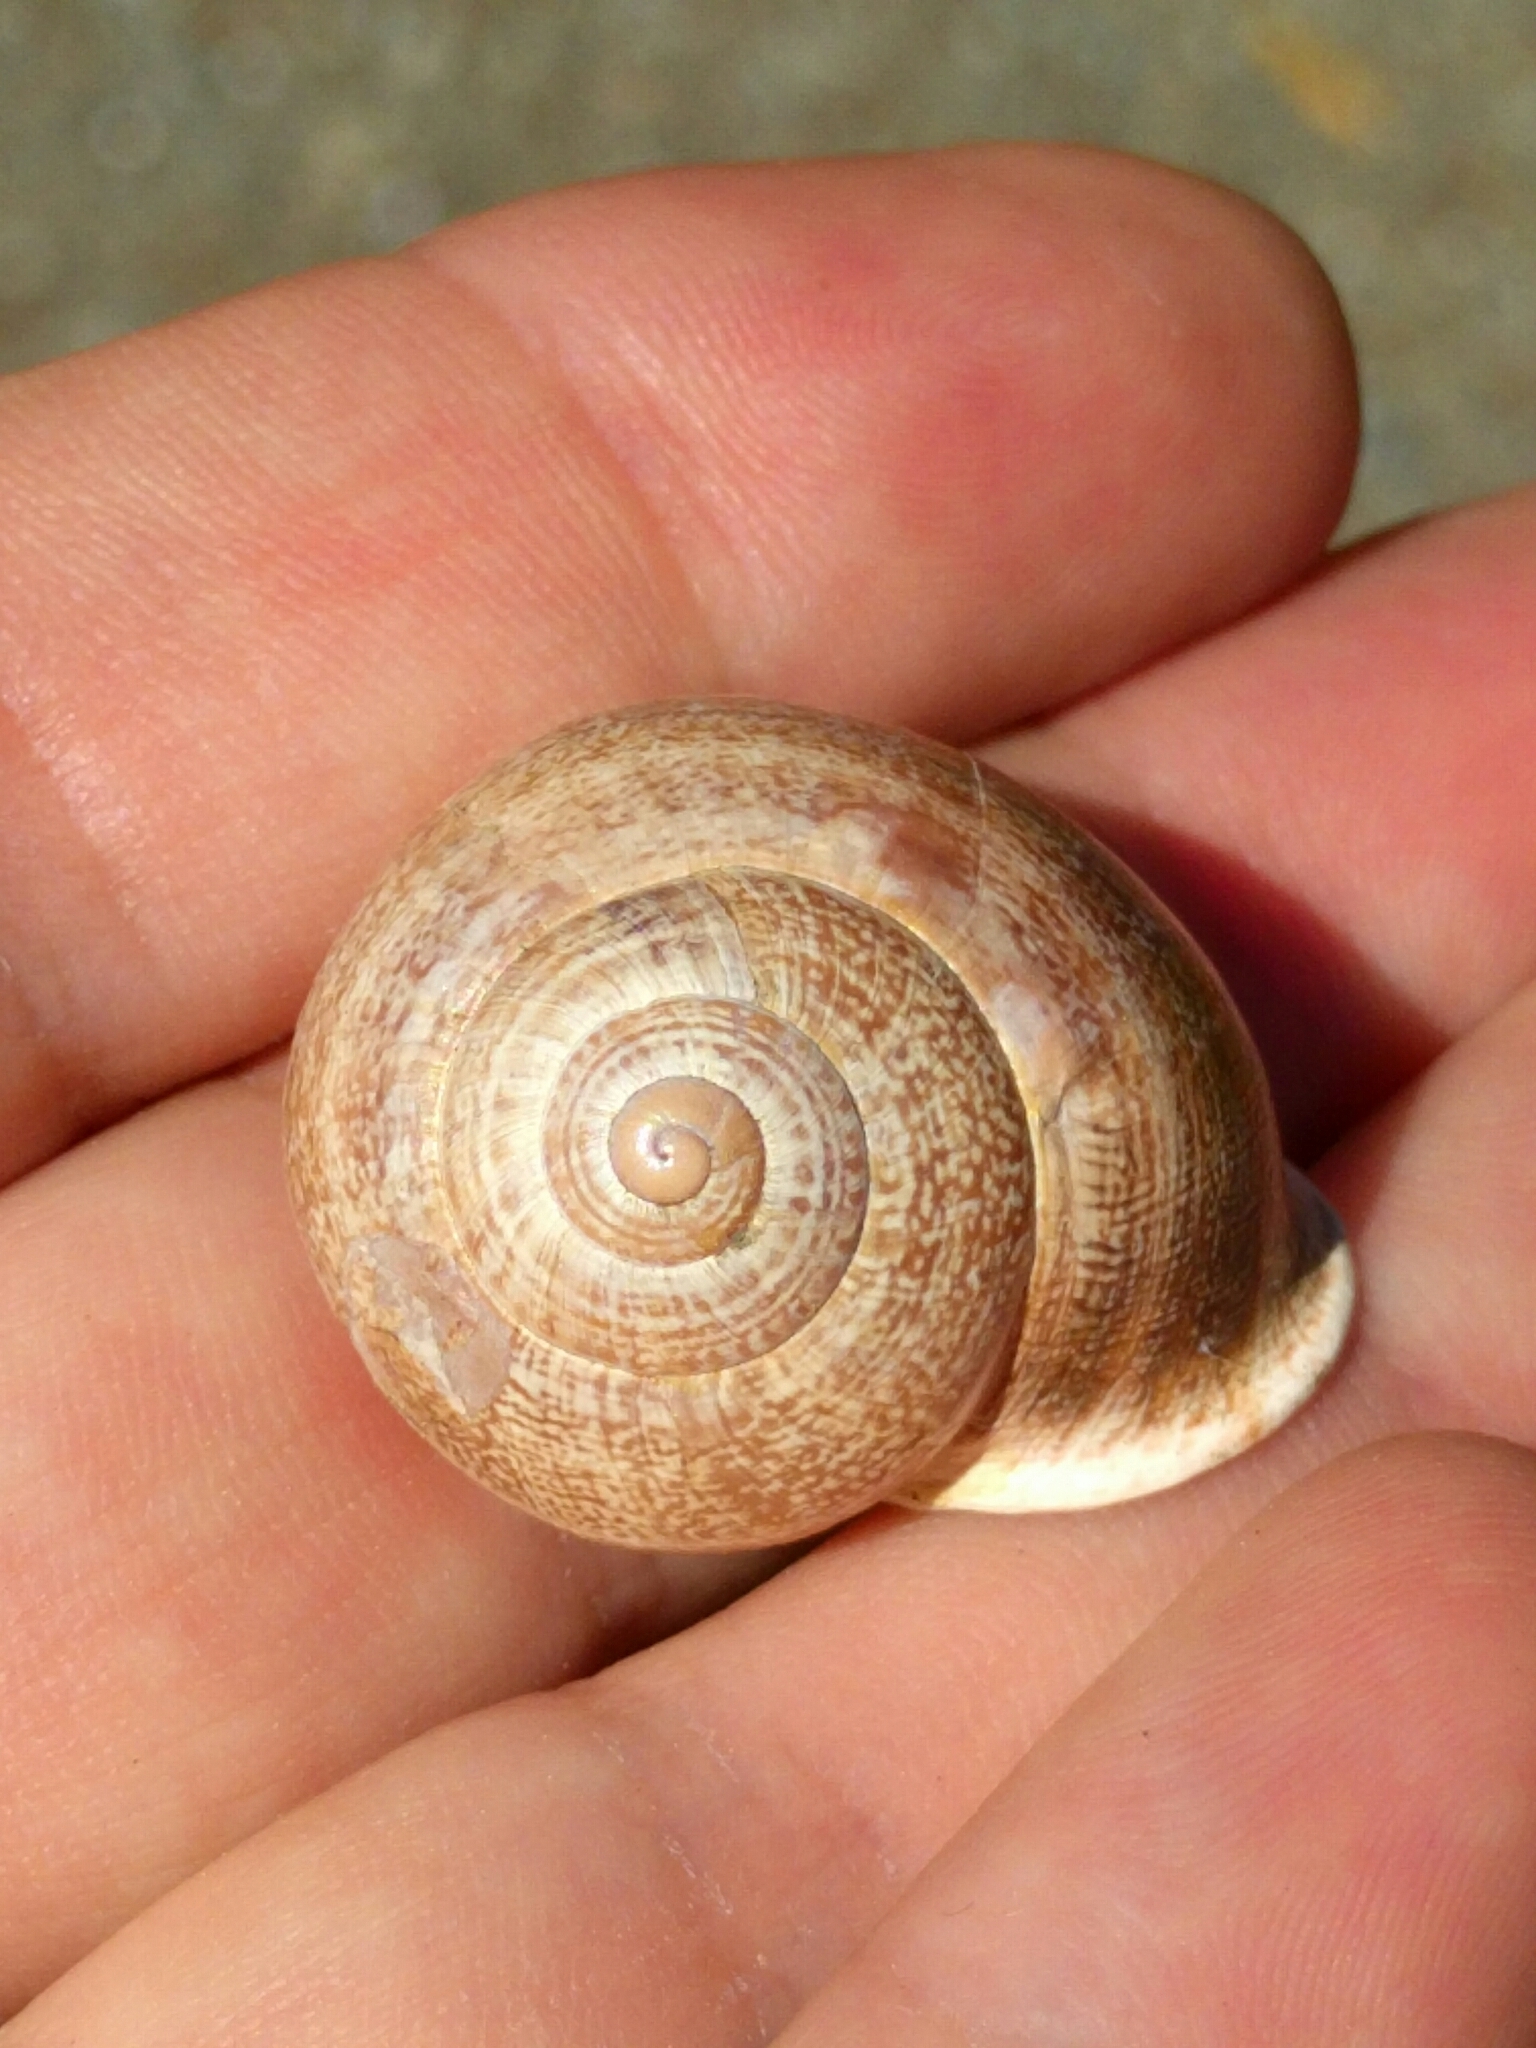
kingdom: Animalia
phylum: Mollusca
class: Gastropoda
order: Stylommatophora
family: Helicidae
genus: Otala
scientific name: Otala lactea
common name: Milk snail
